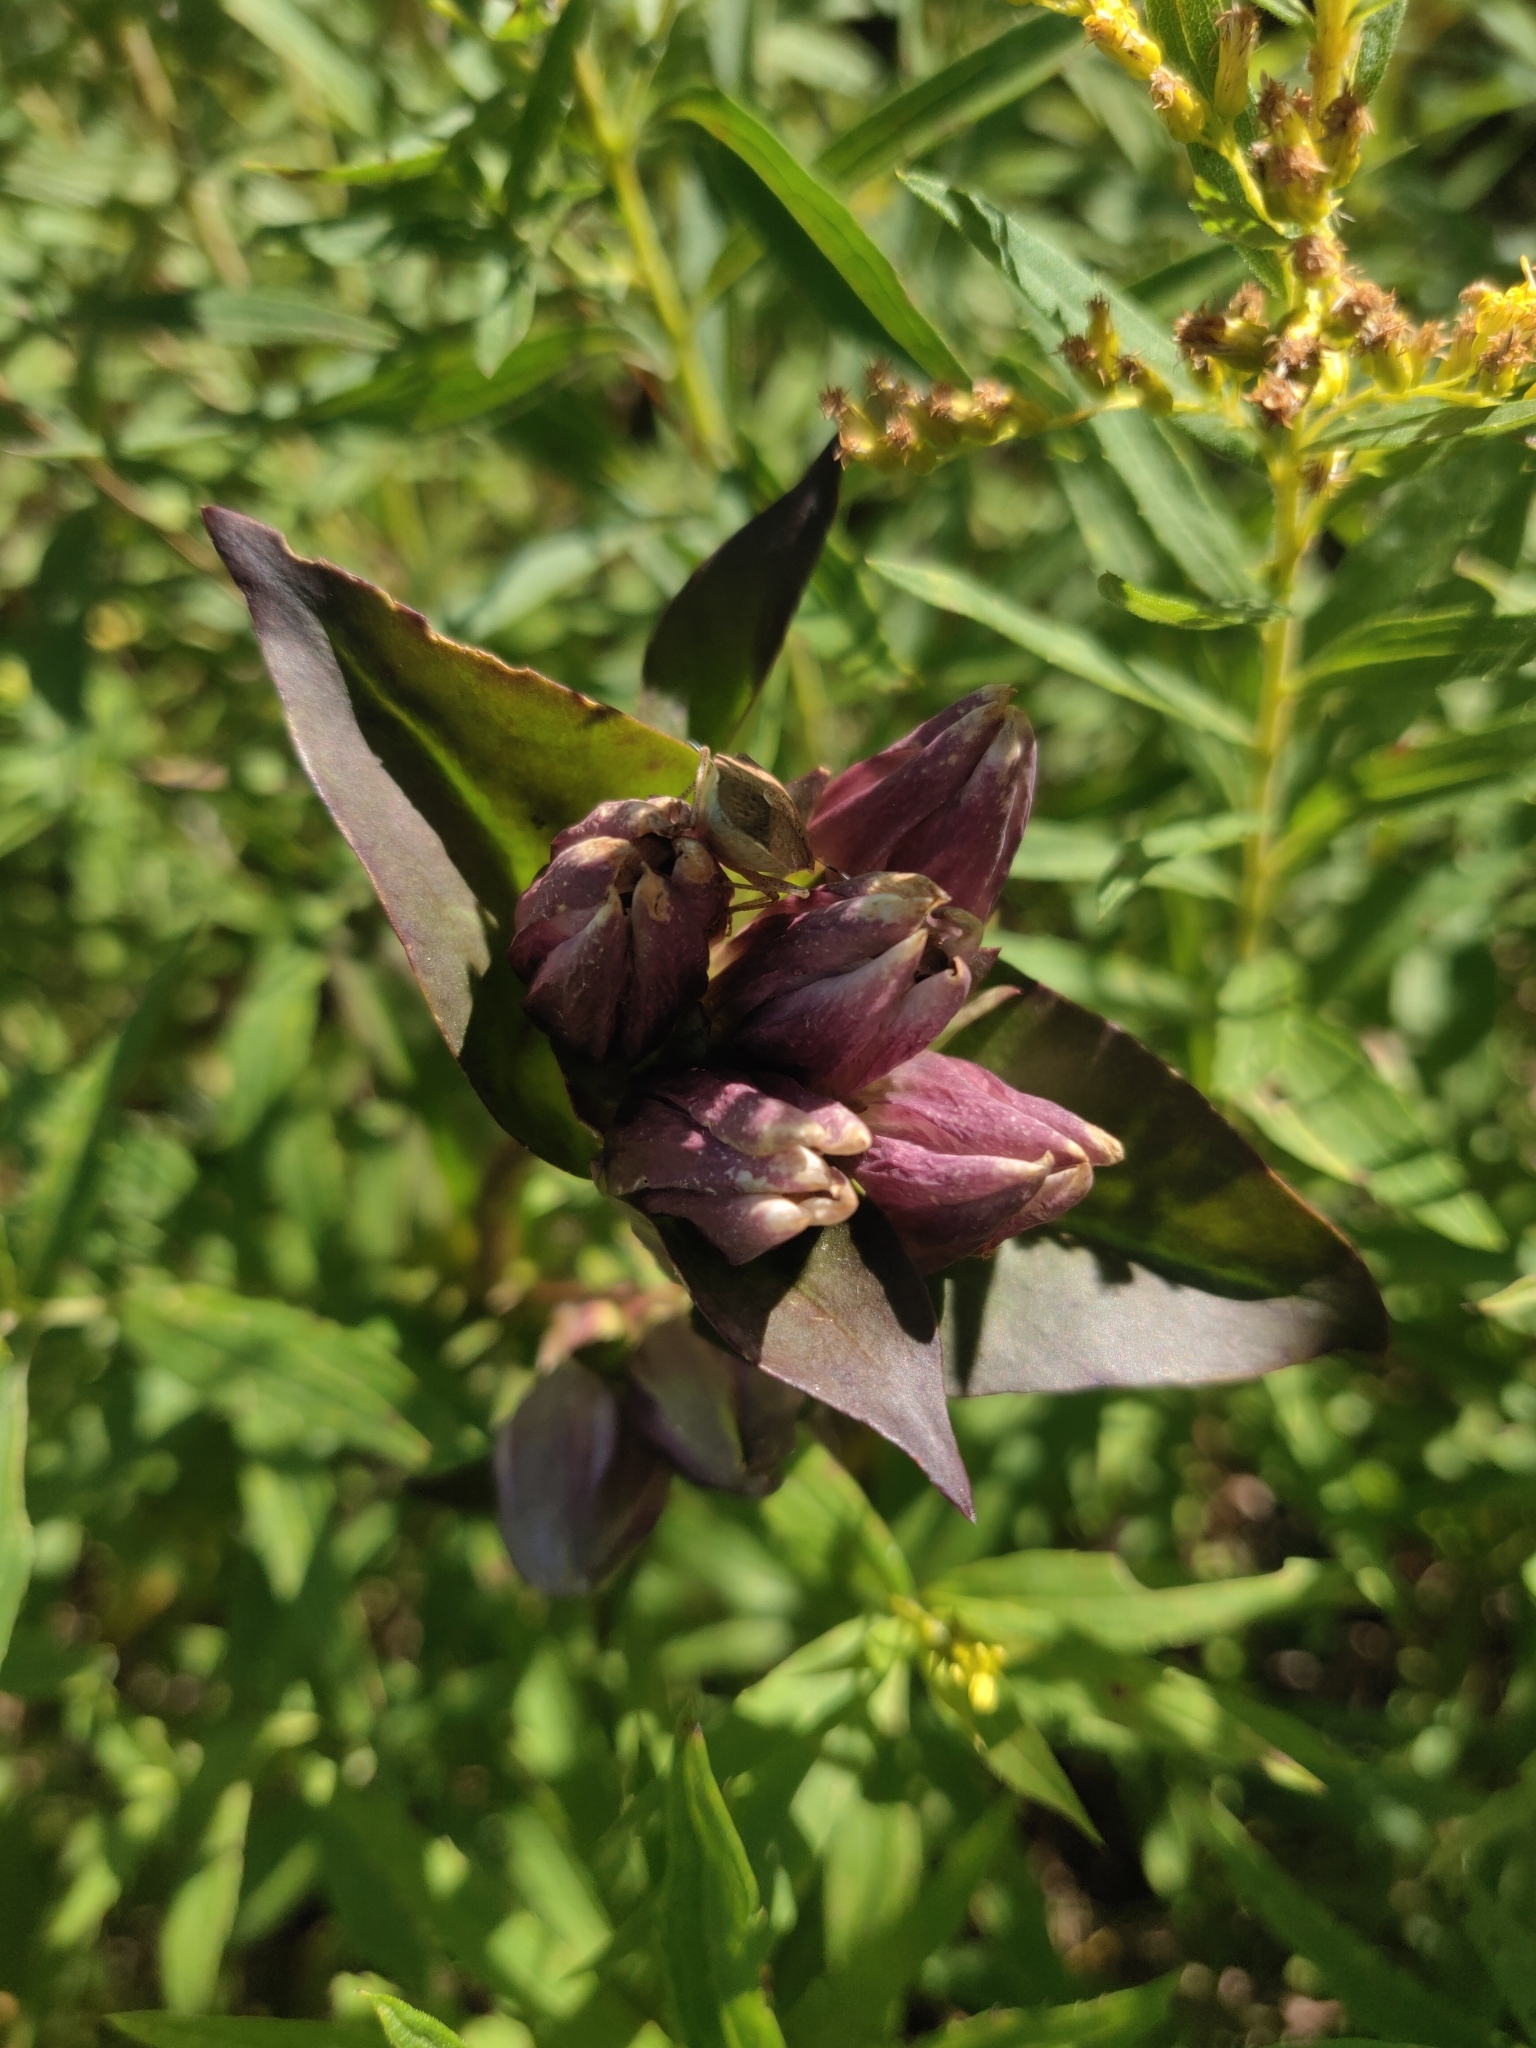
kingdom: Plantae
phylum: Tracheophyta
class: Magnoliopsida
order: Gentianales
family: Gentianaceae
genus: Gentiana
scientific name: Gentiana rubricaulis
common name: Purple-stemmed gentian
